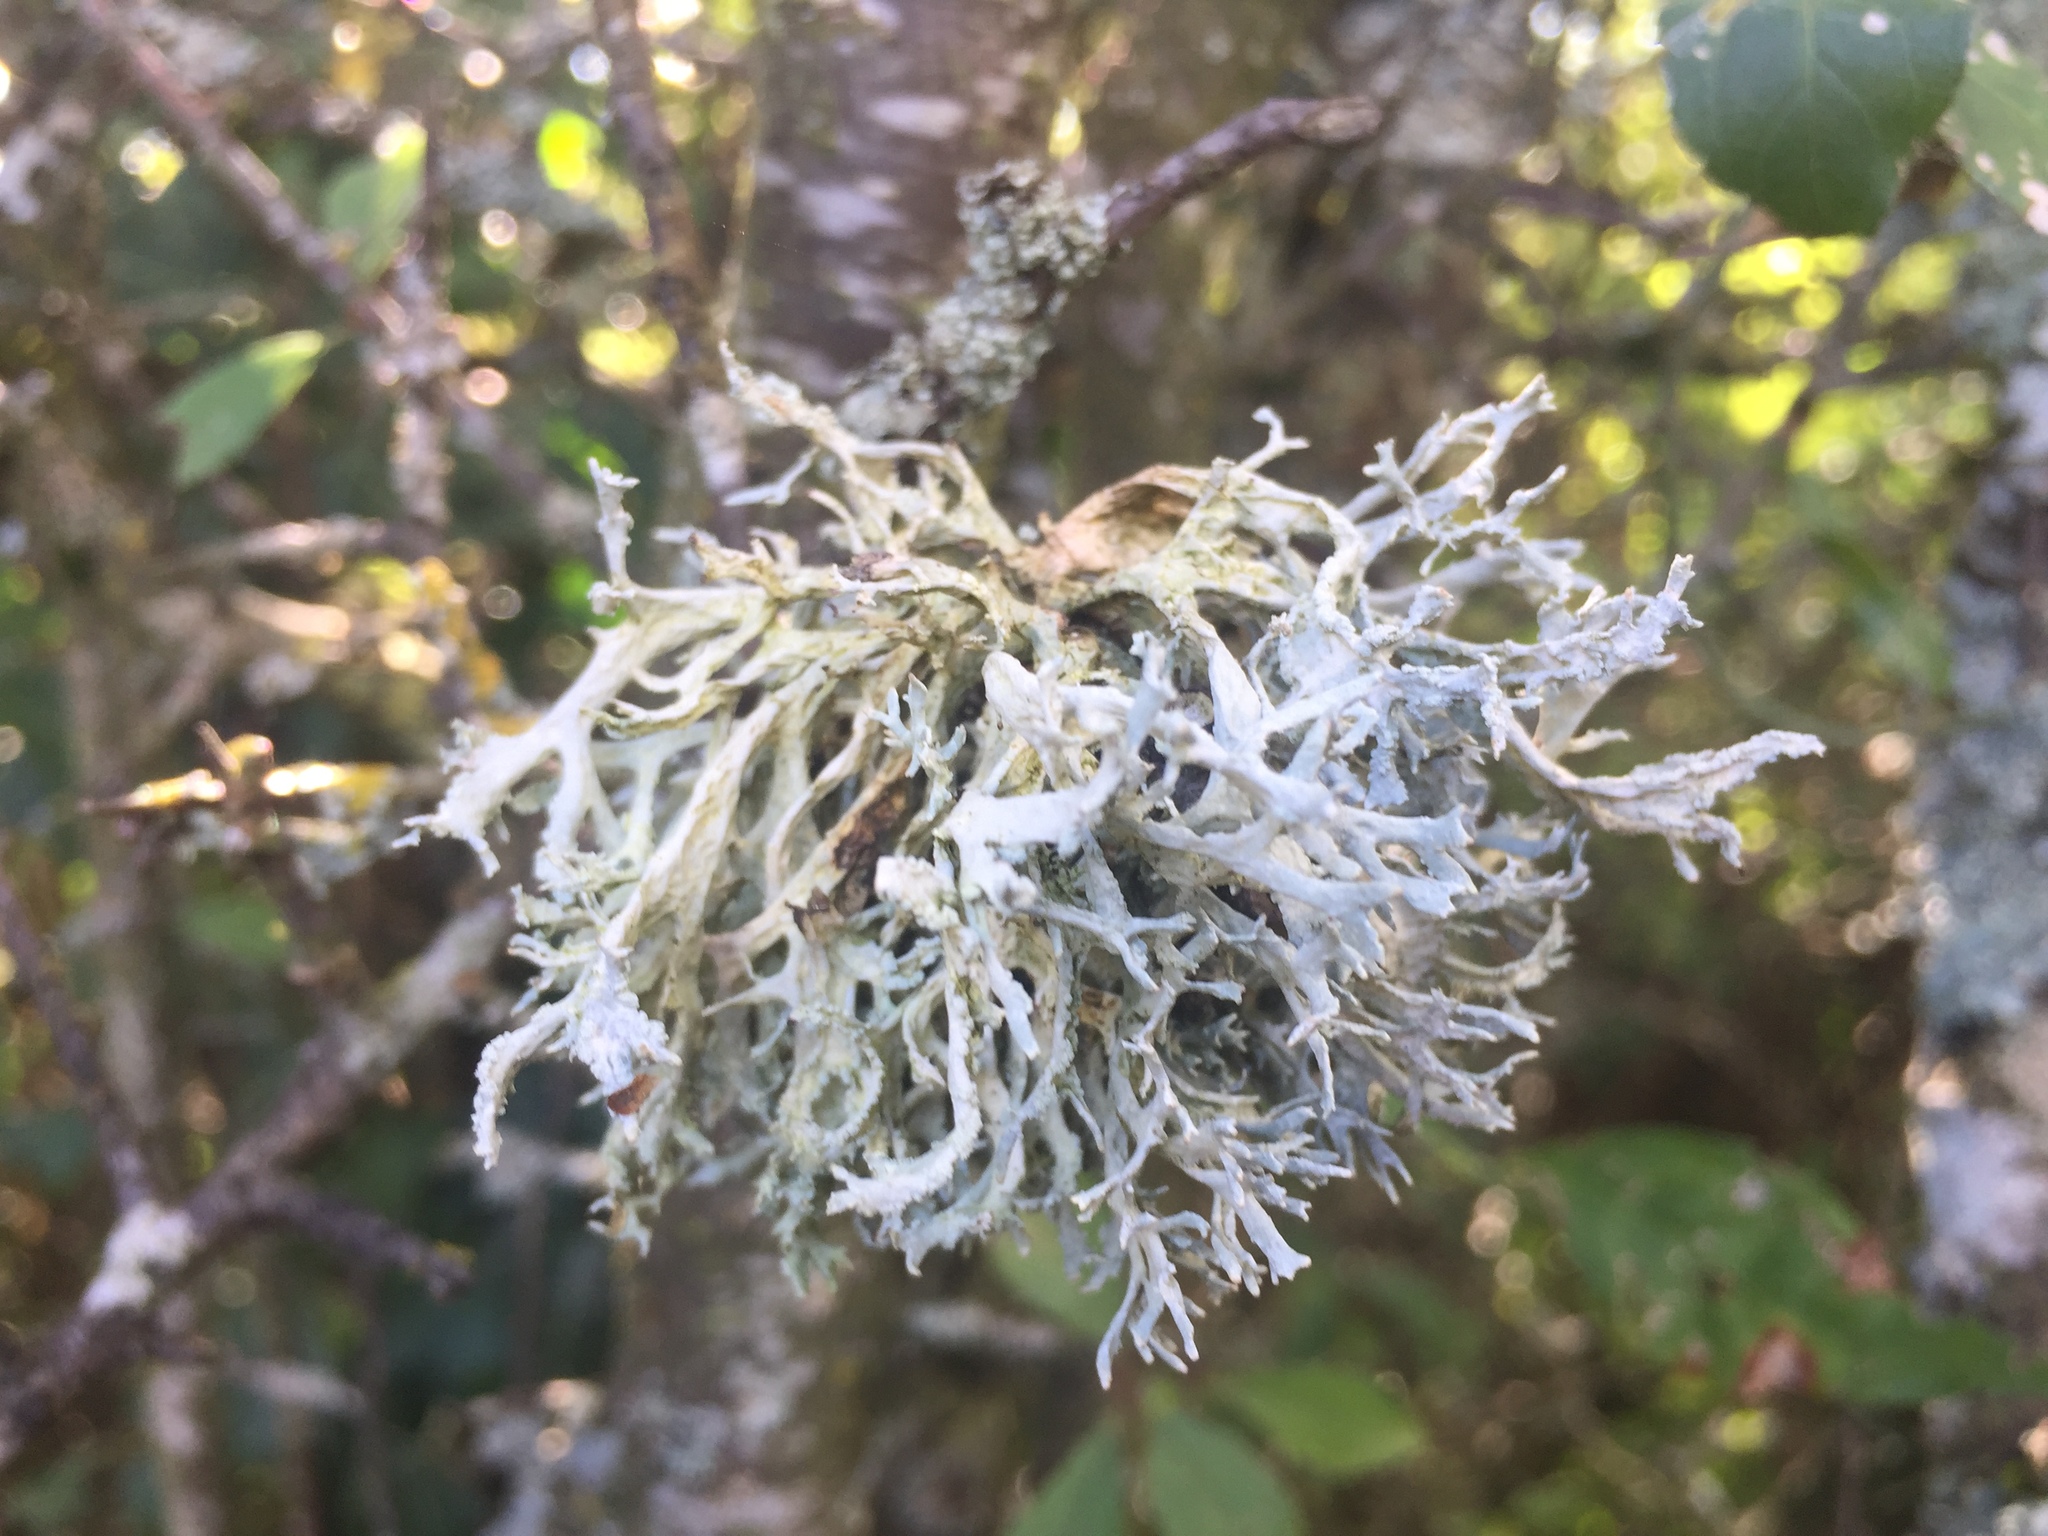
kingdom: Fungi
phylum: Ascomycota
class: Lecanoromycetes
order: Lecanorales
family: Parmeliaceae
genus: Evernia
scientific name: Evernia prunastri
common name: Oak moss
